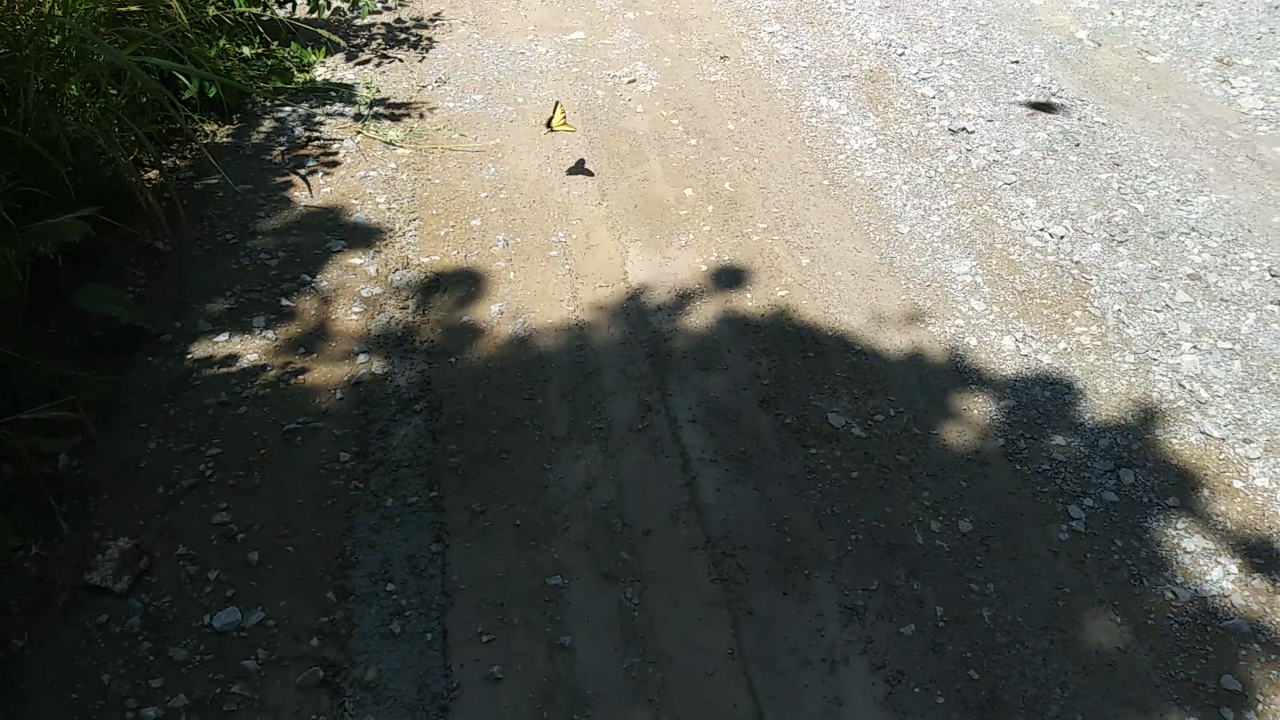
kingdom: Animalia
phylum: Arthropoda
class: Insecta
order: Lepidoptera
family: Papilionidae
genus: Papilio
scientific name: Papilio glaucus
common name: Tiger swallowtail
